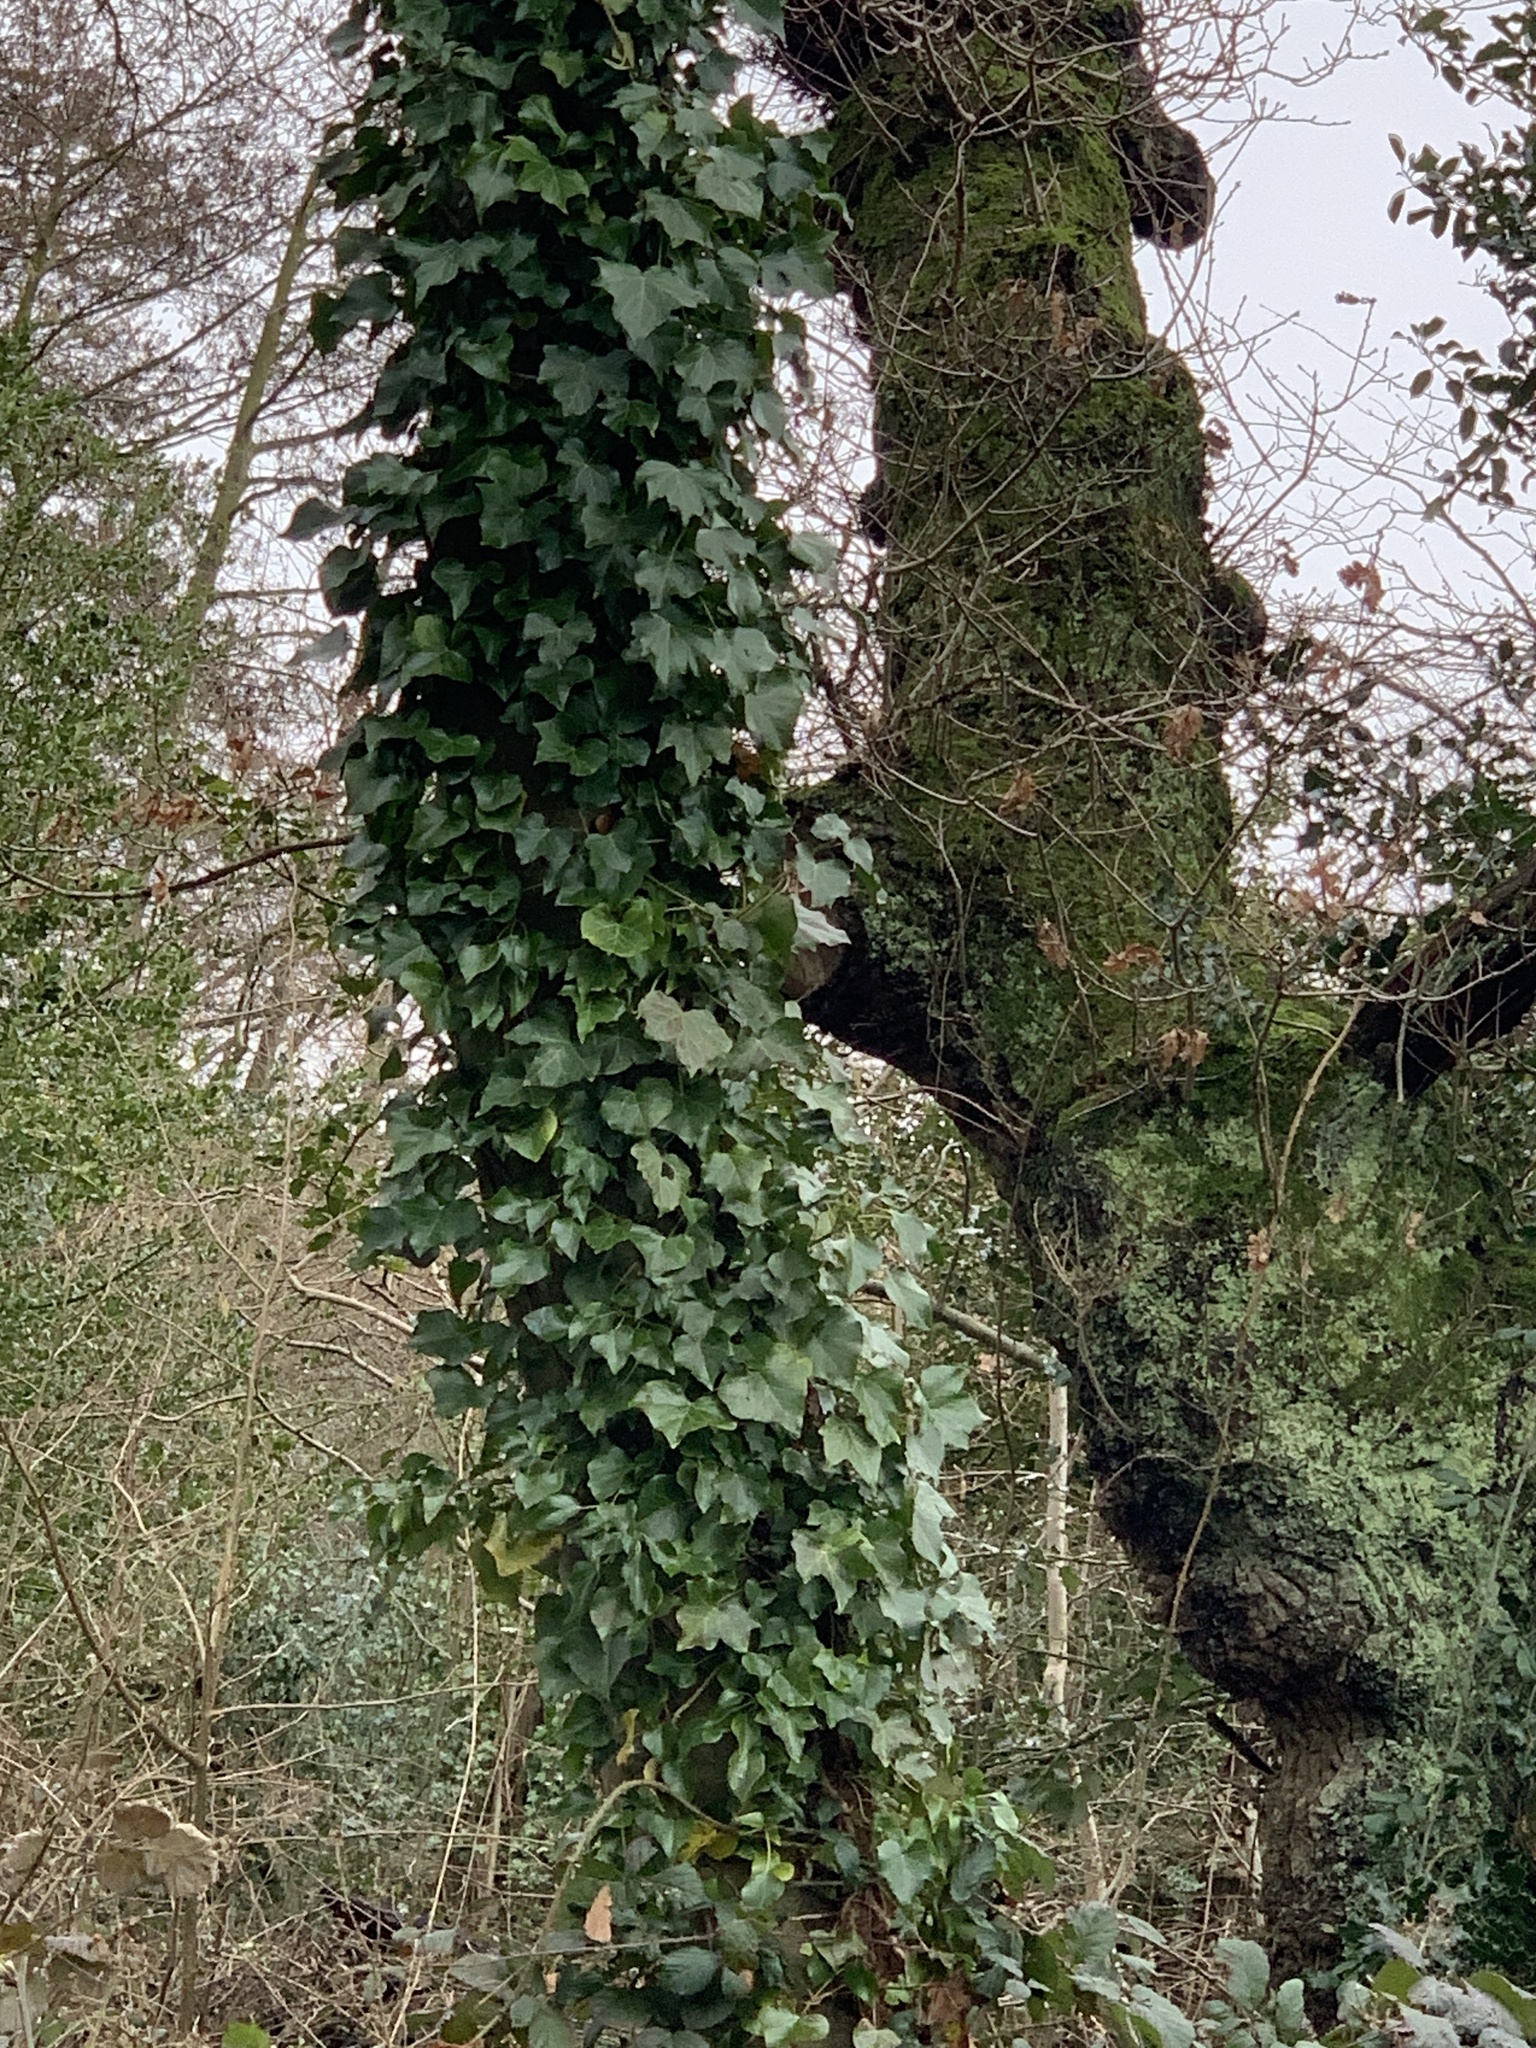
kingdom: Plantae
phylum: Tracheophyta
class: Magnoliopsida
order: Apiales
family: Araliaceae
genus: Hedera
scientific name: Hedera helix
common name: Ivy
